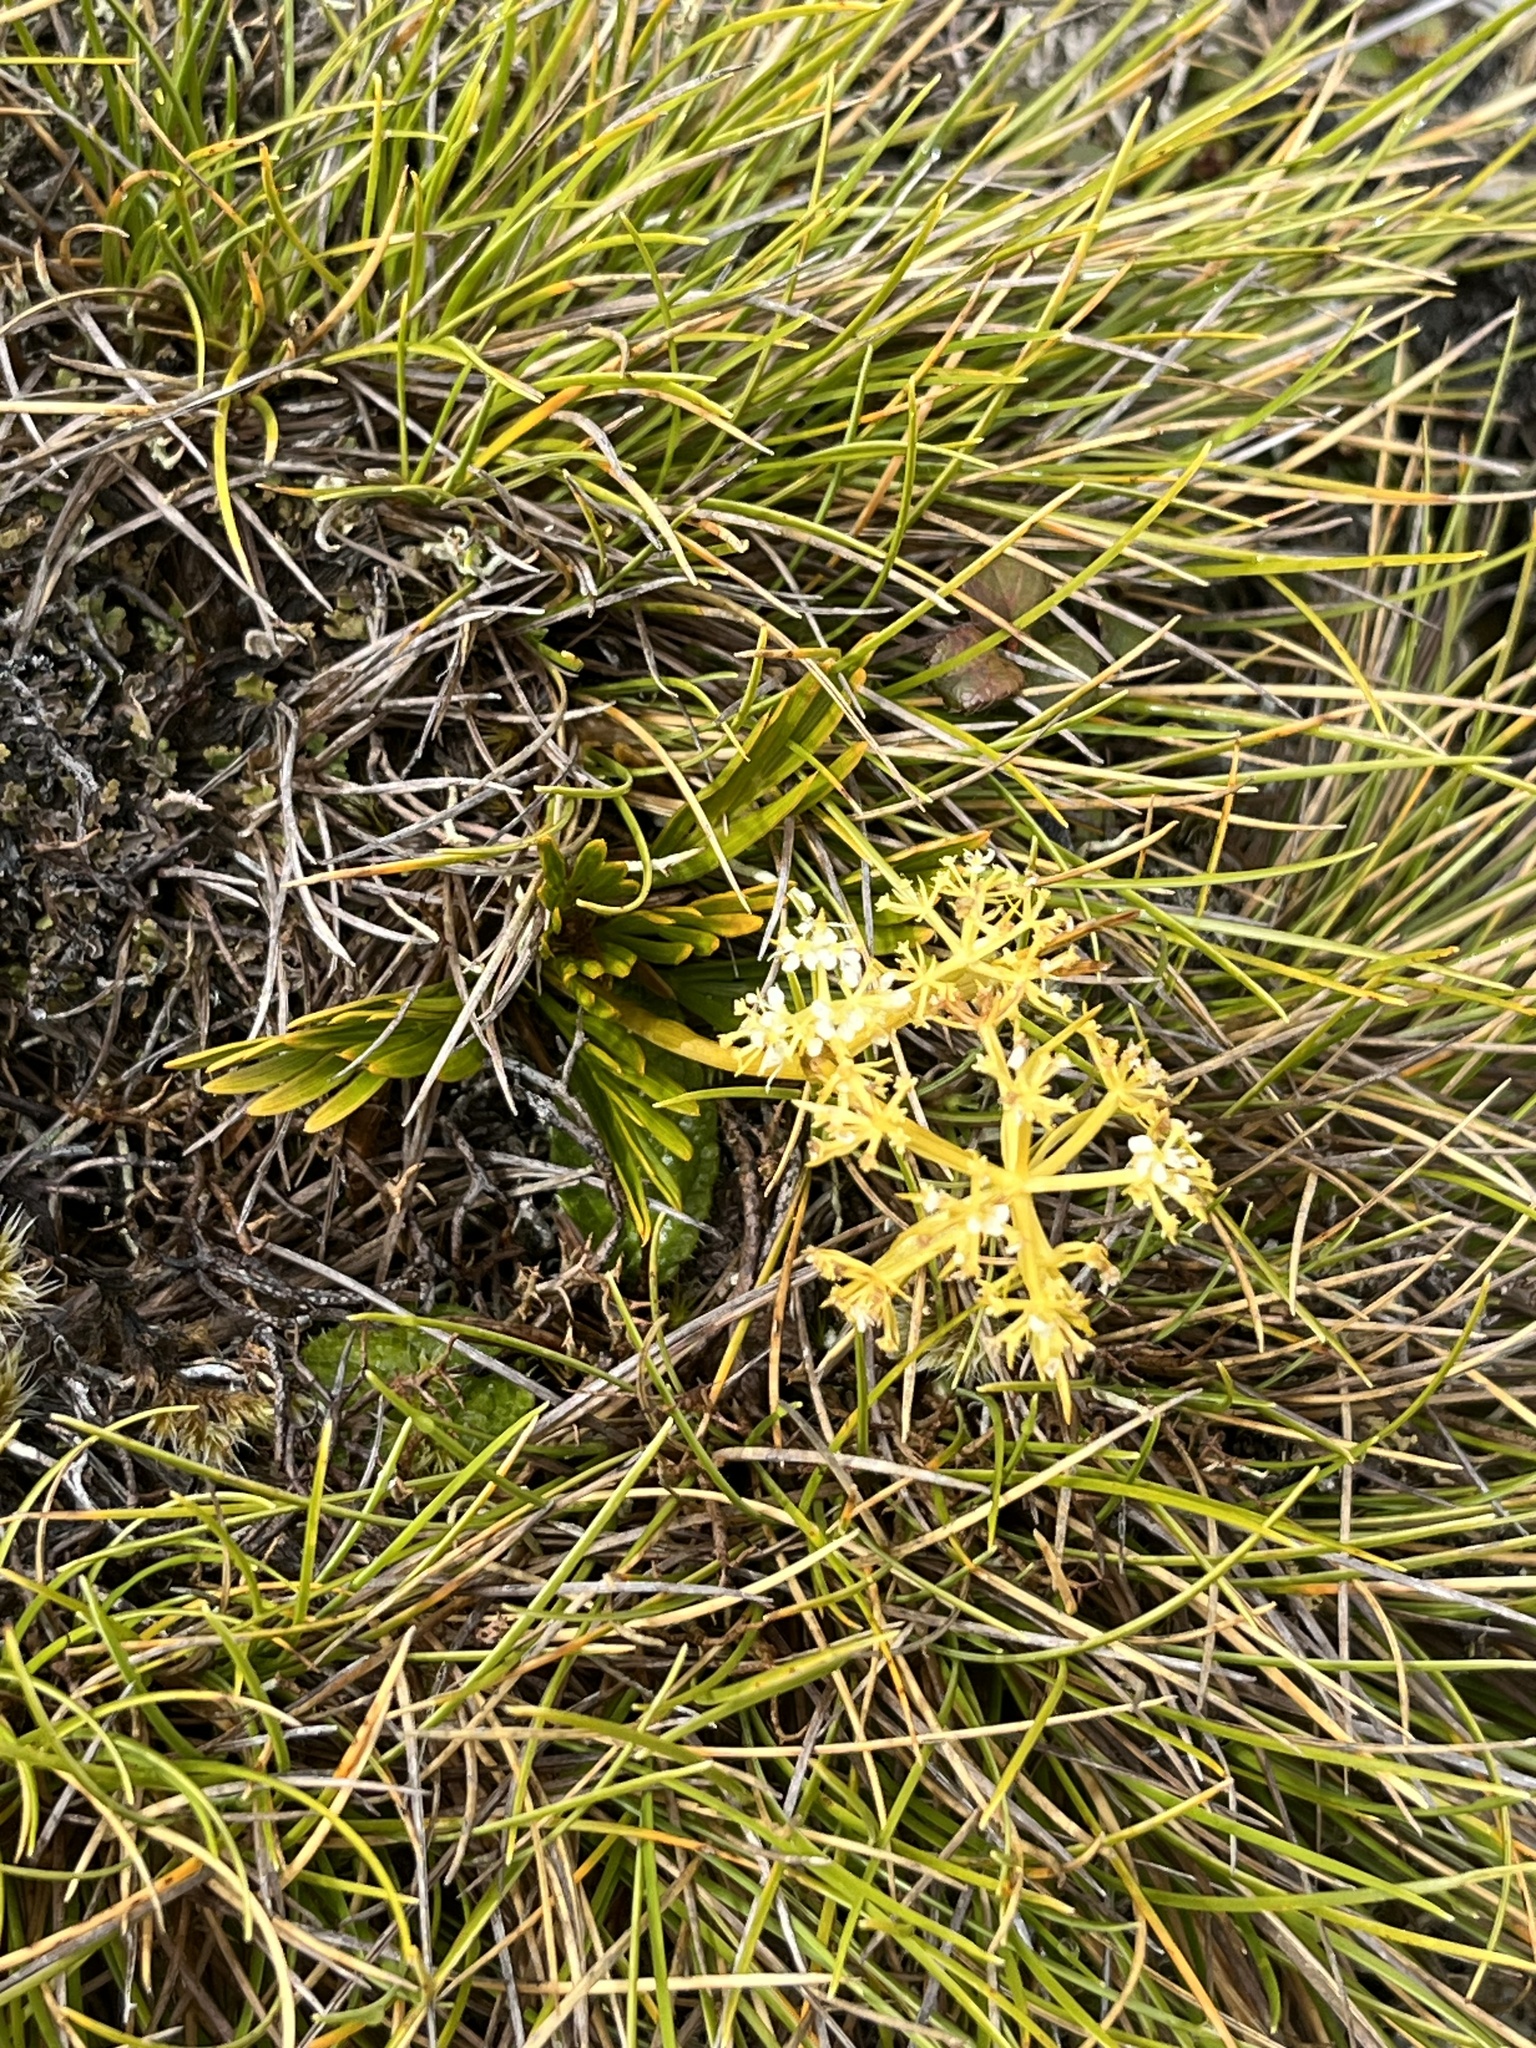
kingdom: Plantae
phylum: Tracheophyta
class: Magnoliopsida
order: Apiales
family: Apiaceae
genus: Aciphylla
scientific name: Aciphylla similis
